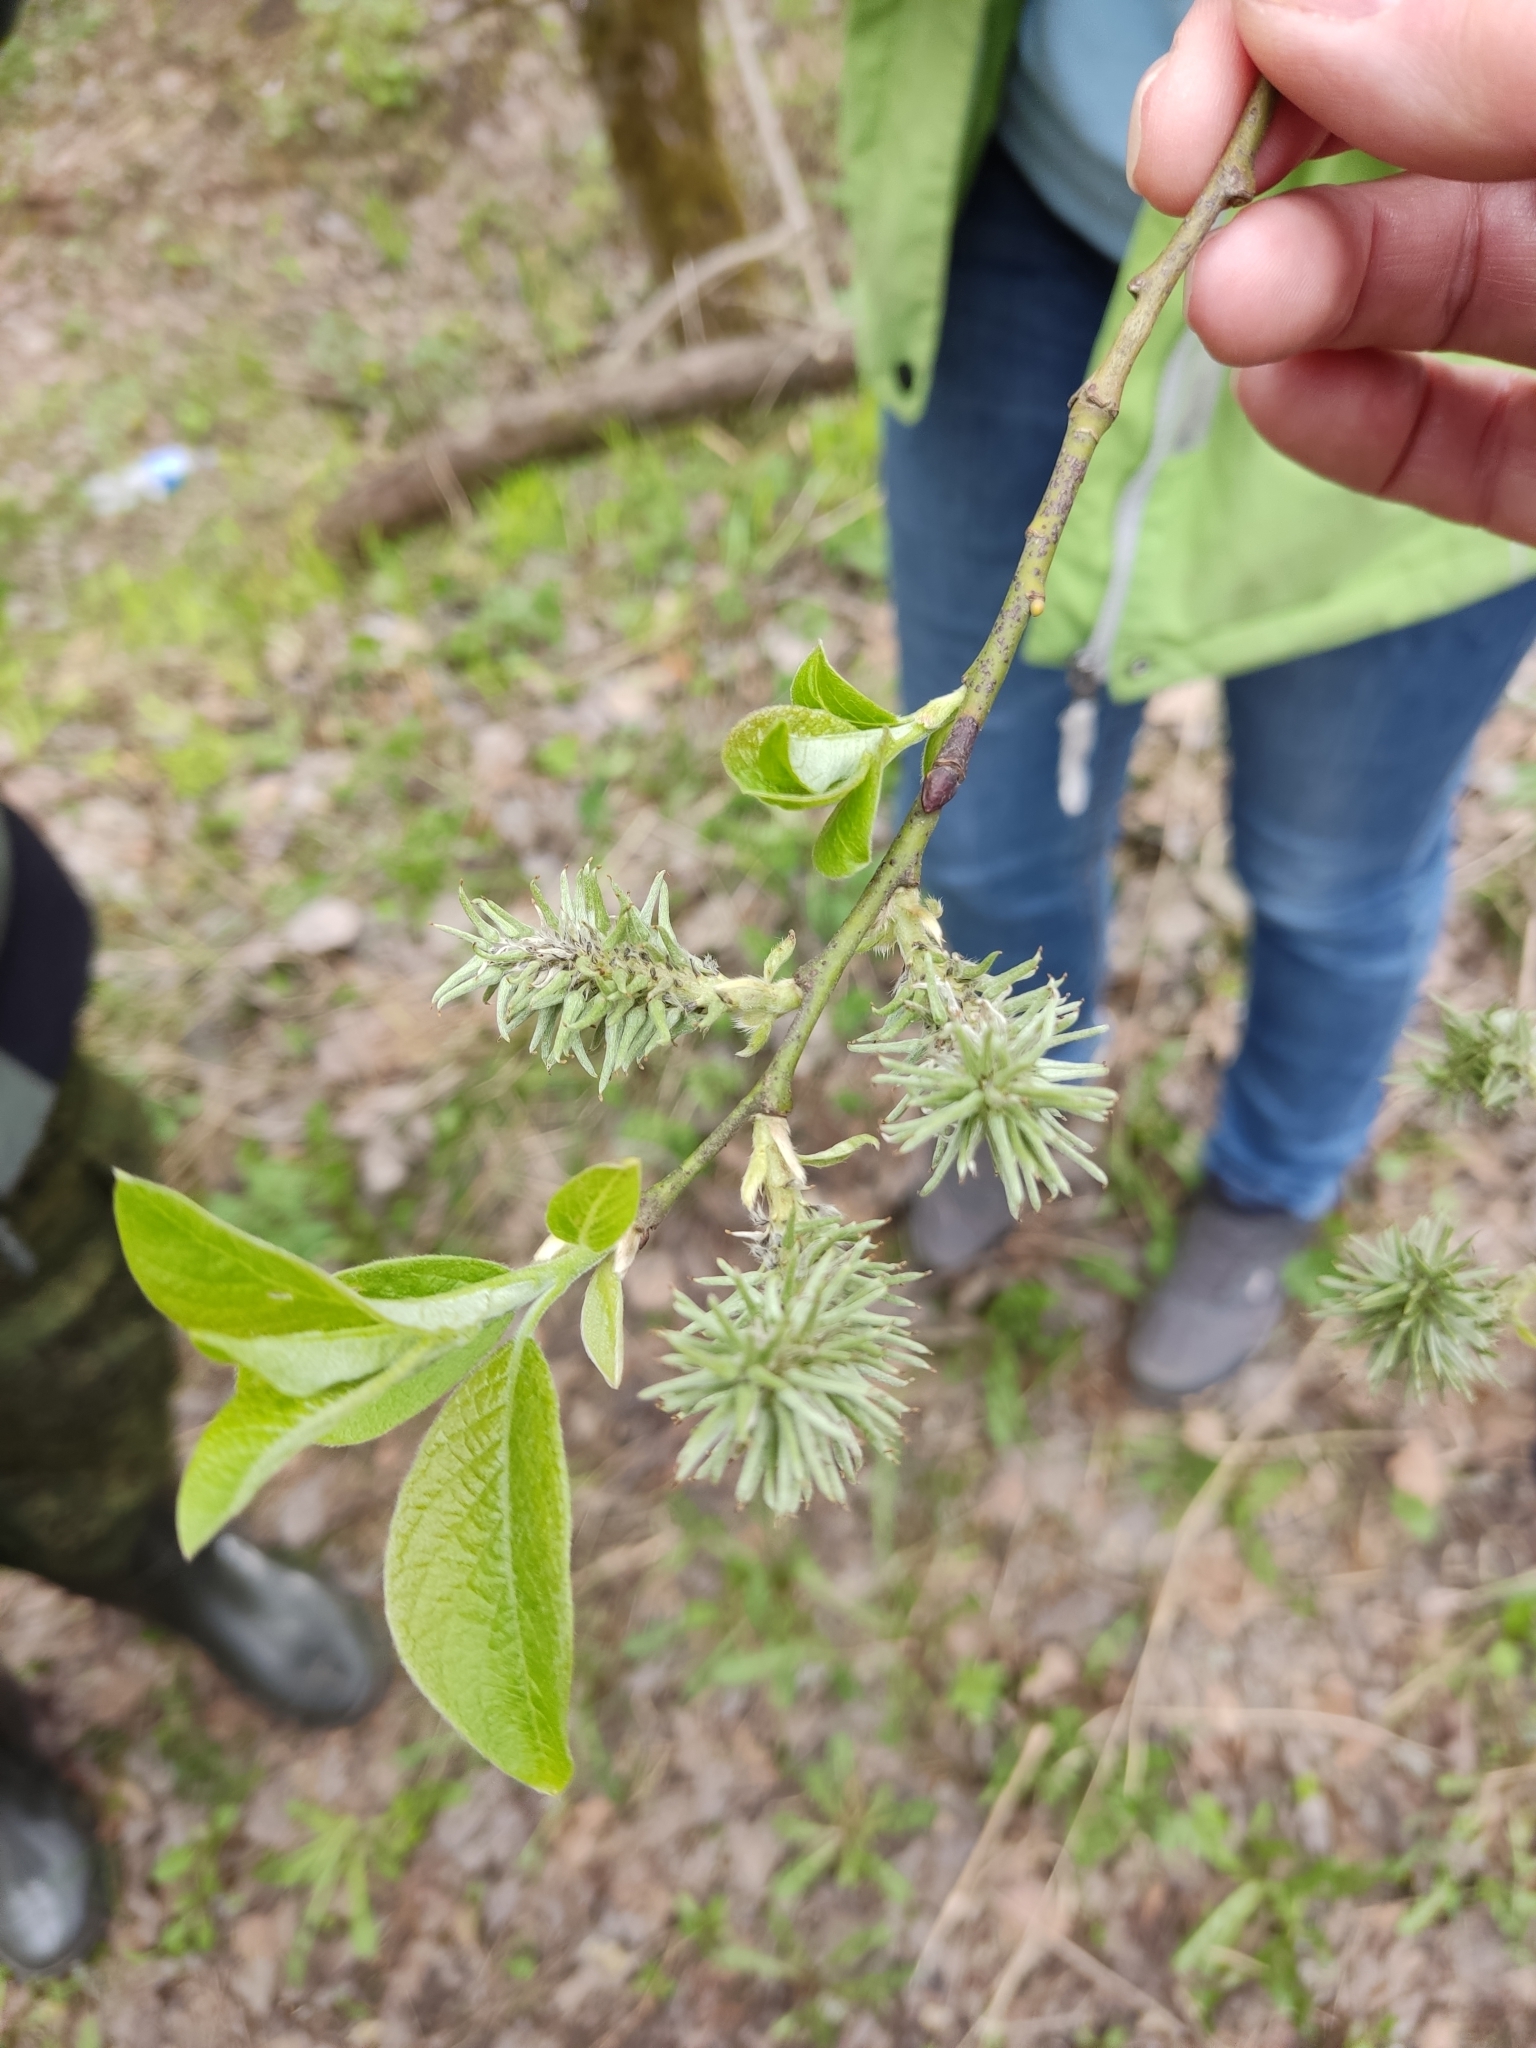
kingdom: Plantae
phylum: Tracheophyta
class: Magnoliopsida
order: Malpighiales
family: Salicaceae
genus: Salix
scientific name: Salix caprea
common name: Goat willow
